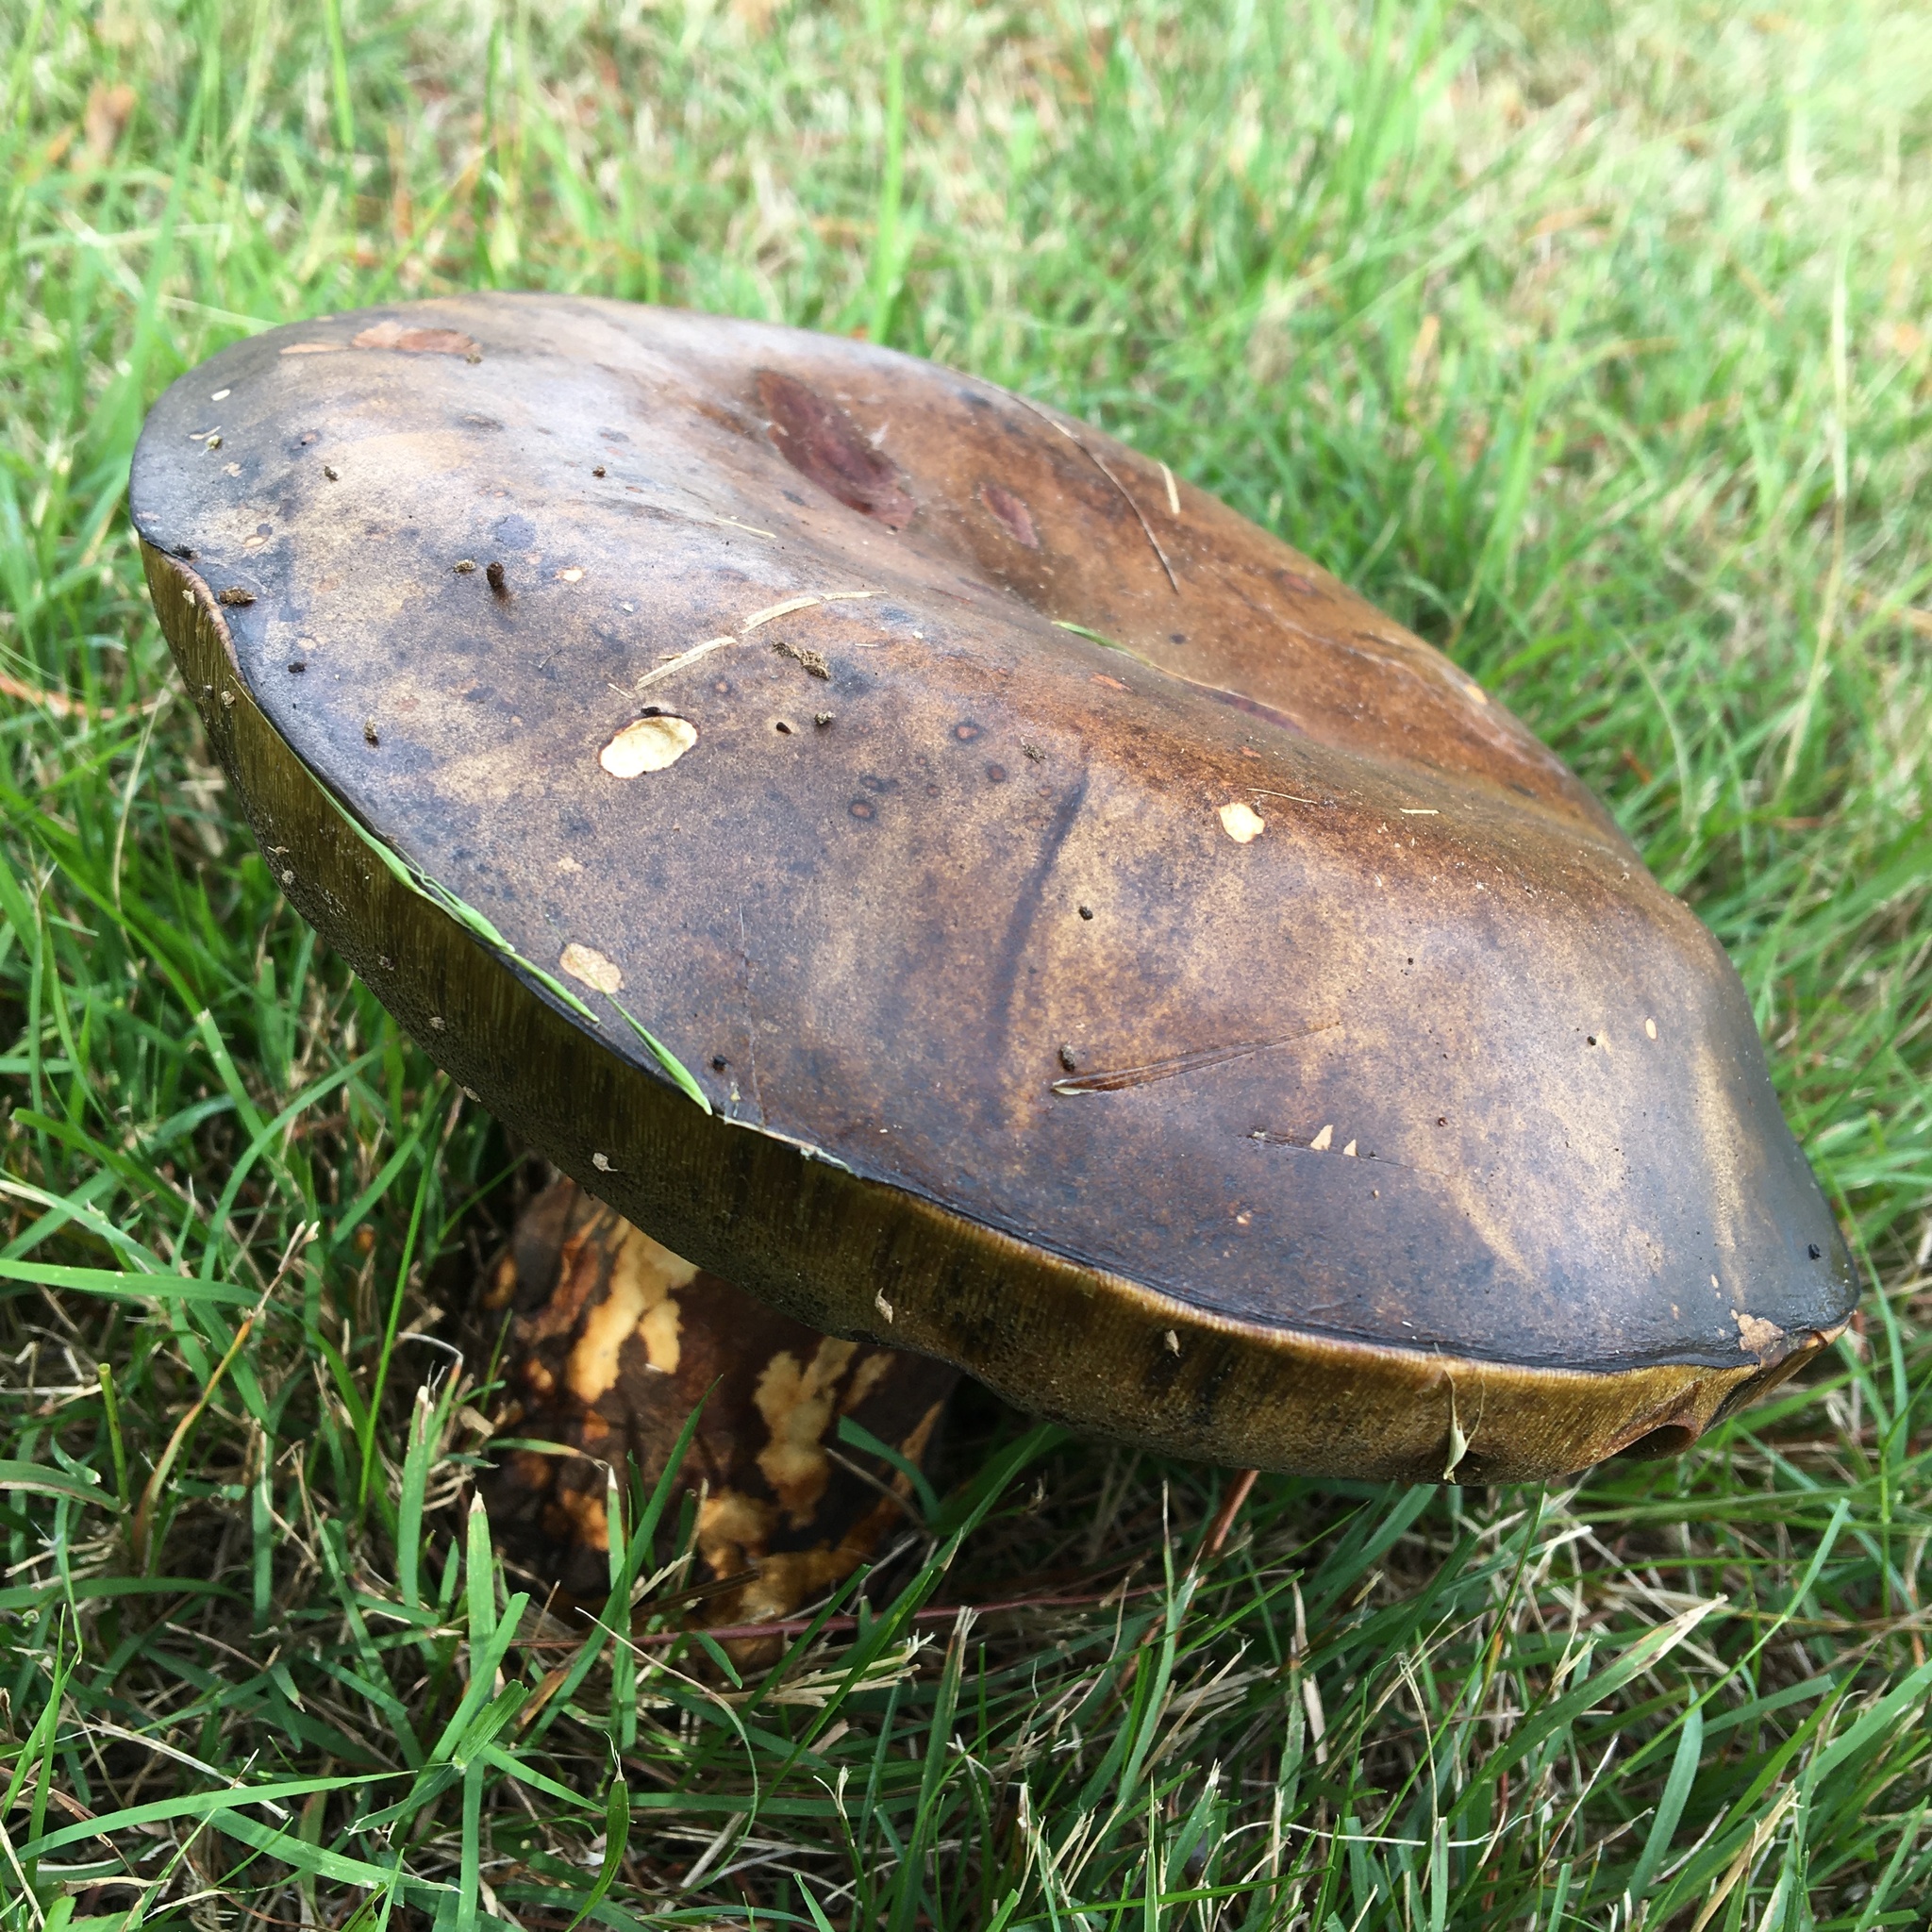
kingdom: Fungi
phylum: Basidiomycota
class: Agaricomycetes
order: Boletales
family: Boletinellaceae
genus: Phlebopus
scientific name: Phlebopus marginatus
